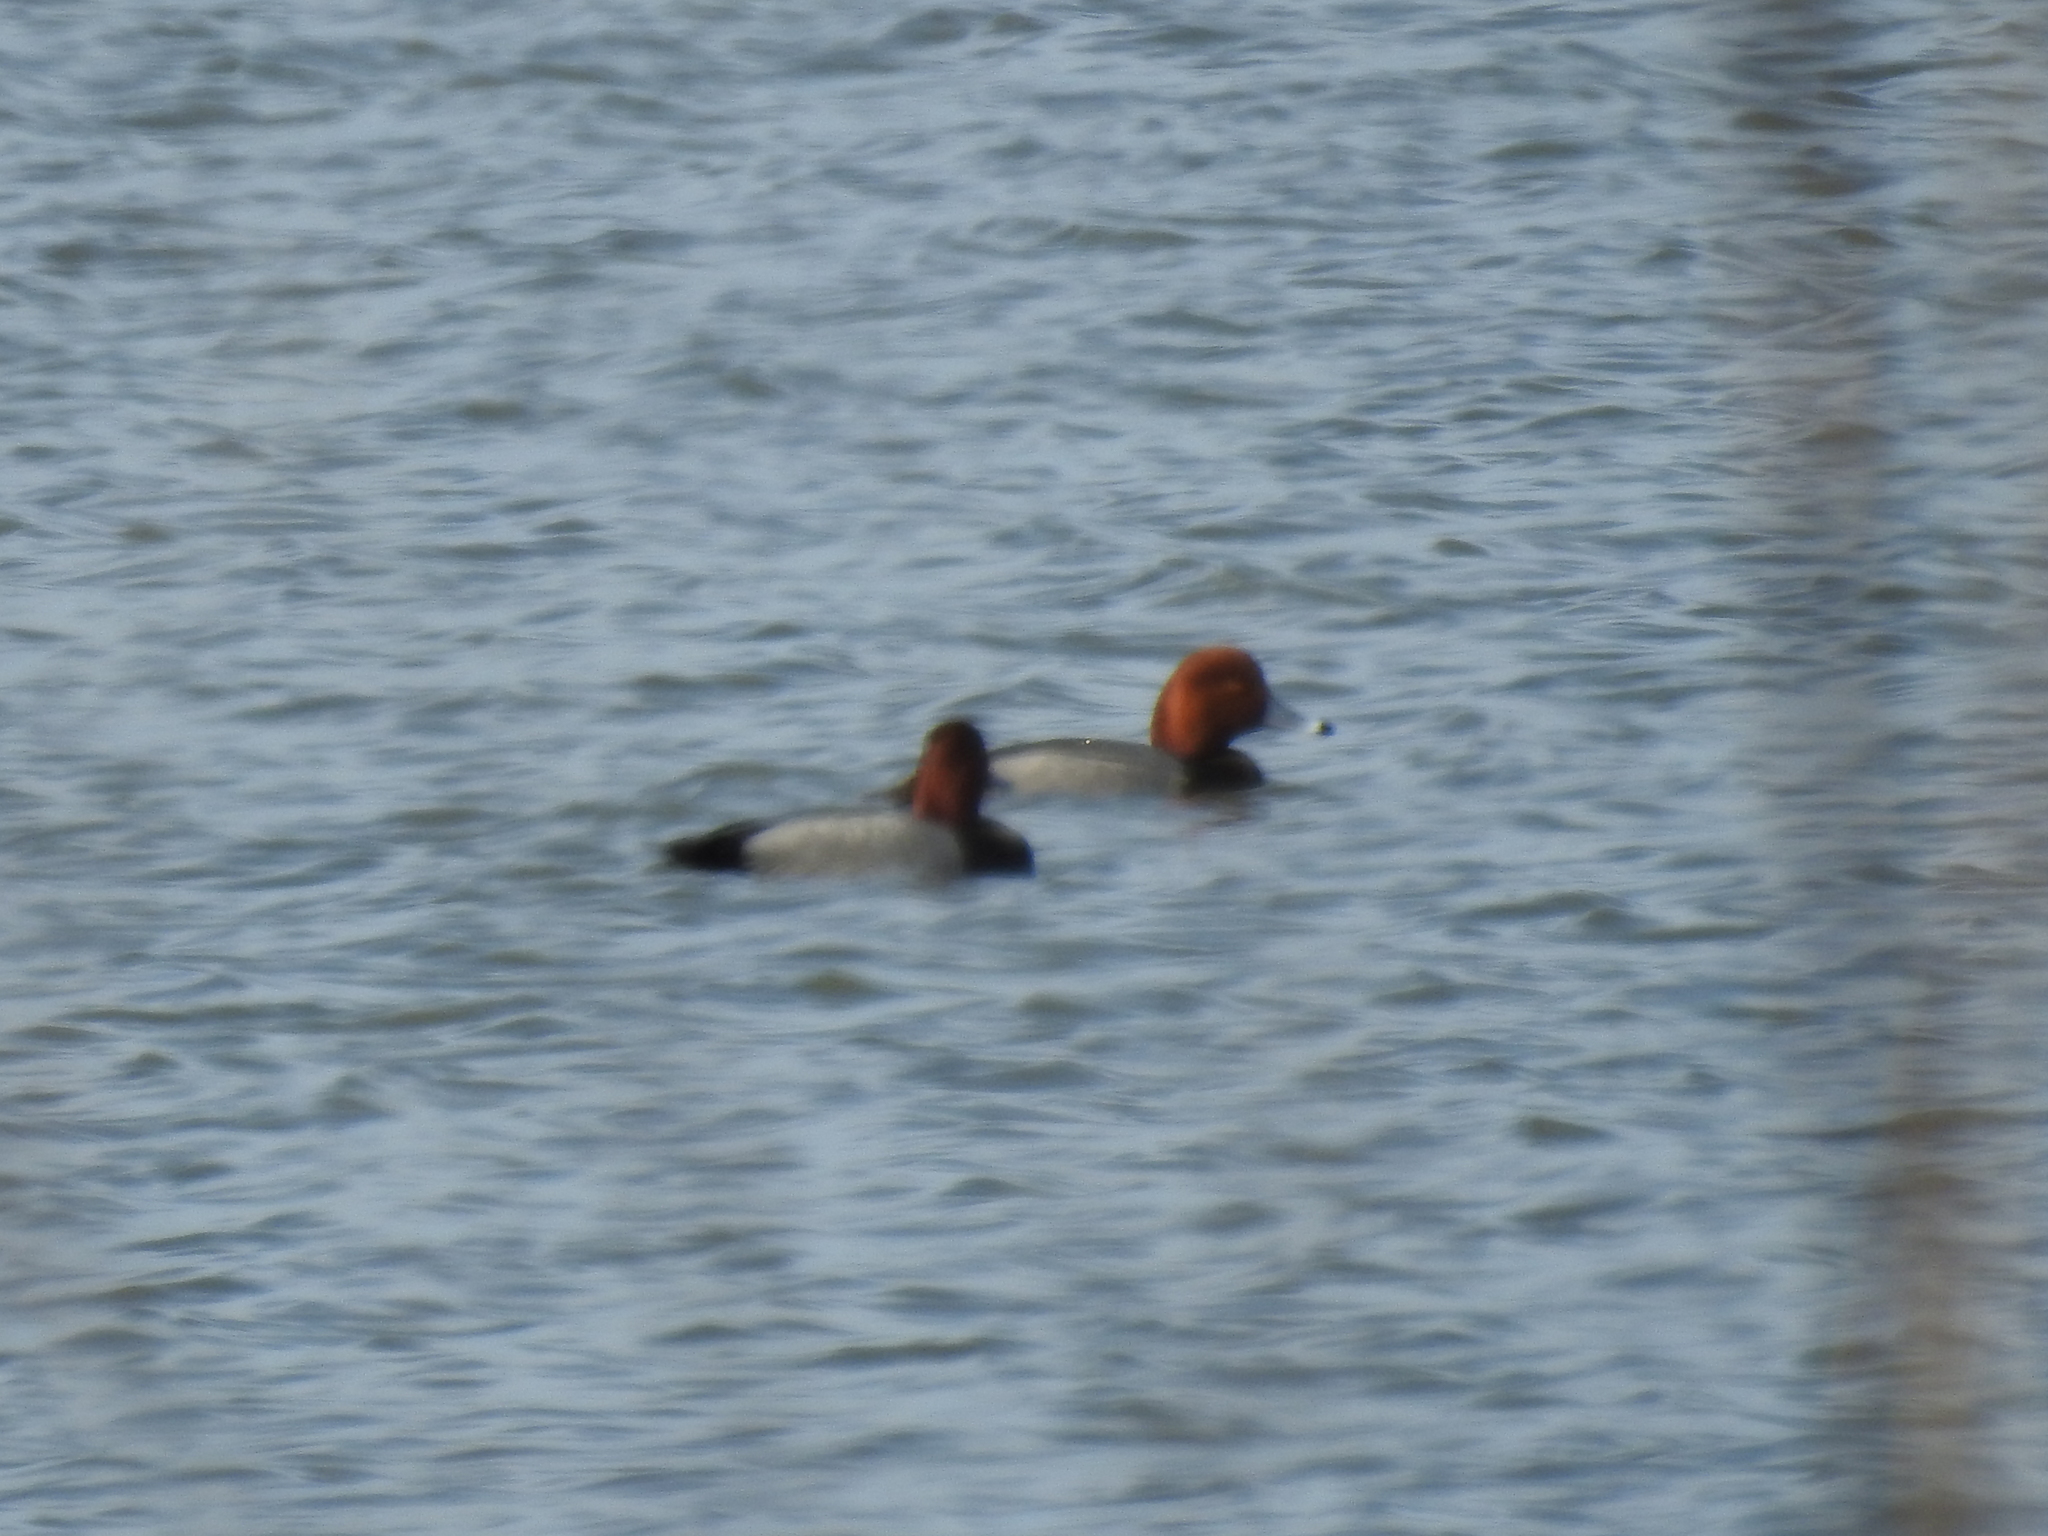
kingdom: Animalia
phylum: Chordata
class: Aves
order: Anseriformes
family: Anatidae
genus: Aythya
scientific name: Aythya americana
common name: Redhead
